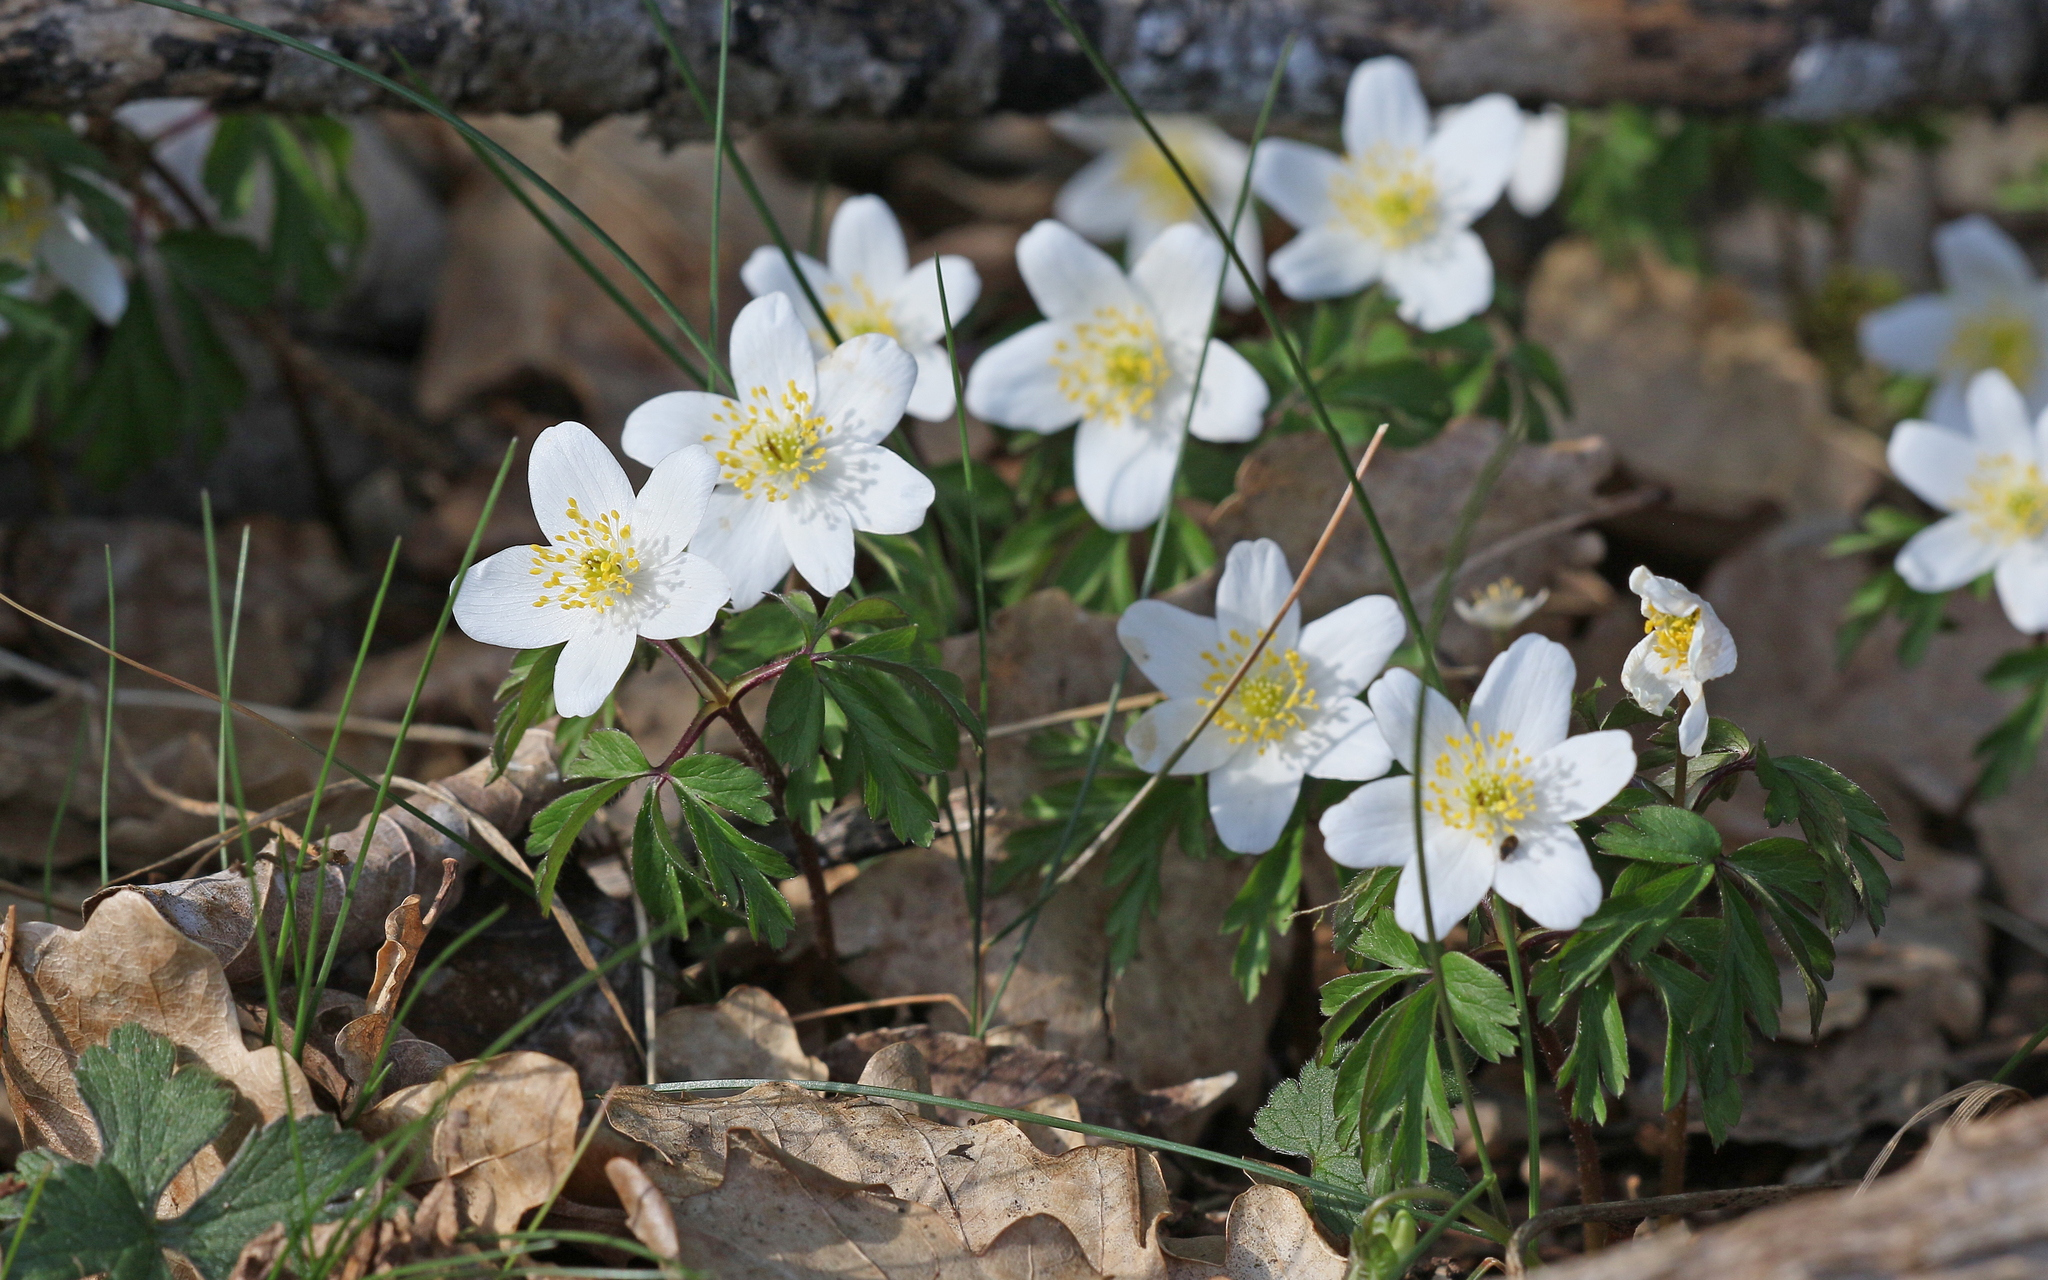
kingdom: Plantae
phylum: Tracheophyta
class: Magnoliopsida
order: Ranunculales
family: Ranunculaceae
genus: Anemone
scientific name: Anemone nemorosa
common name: Wood anemone
